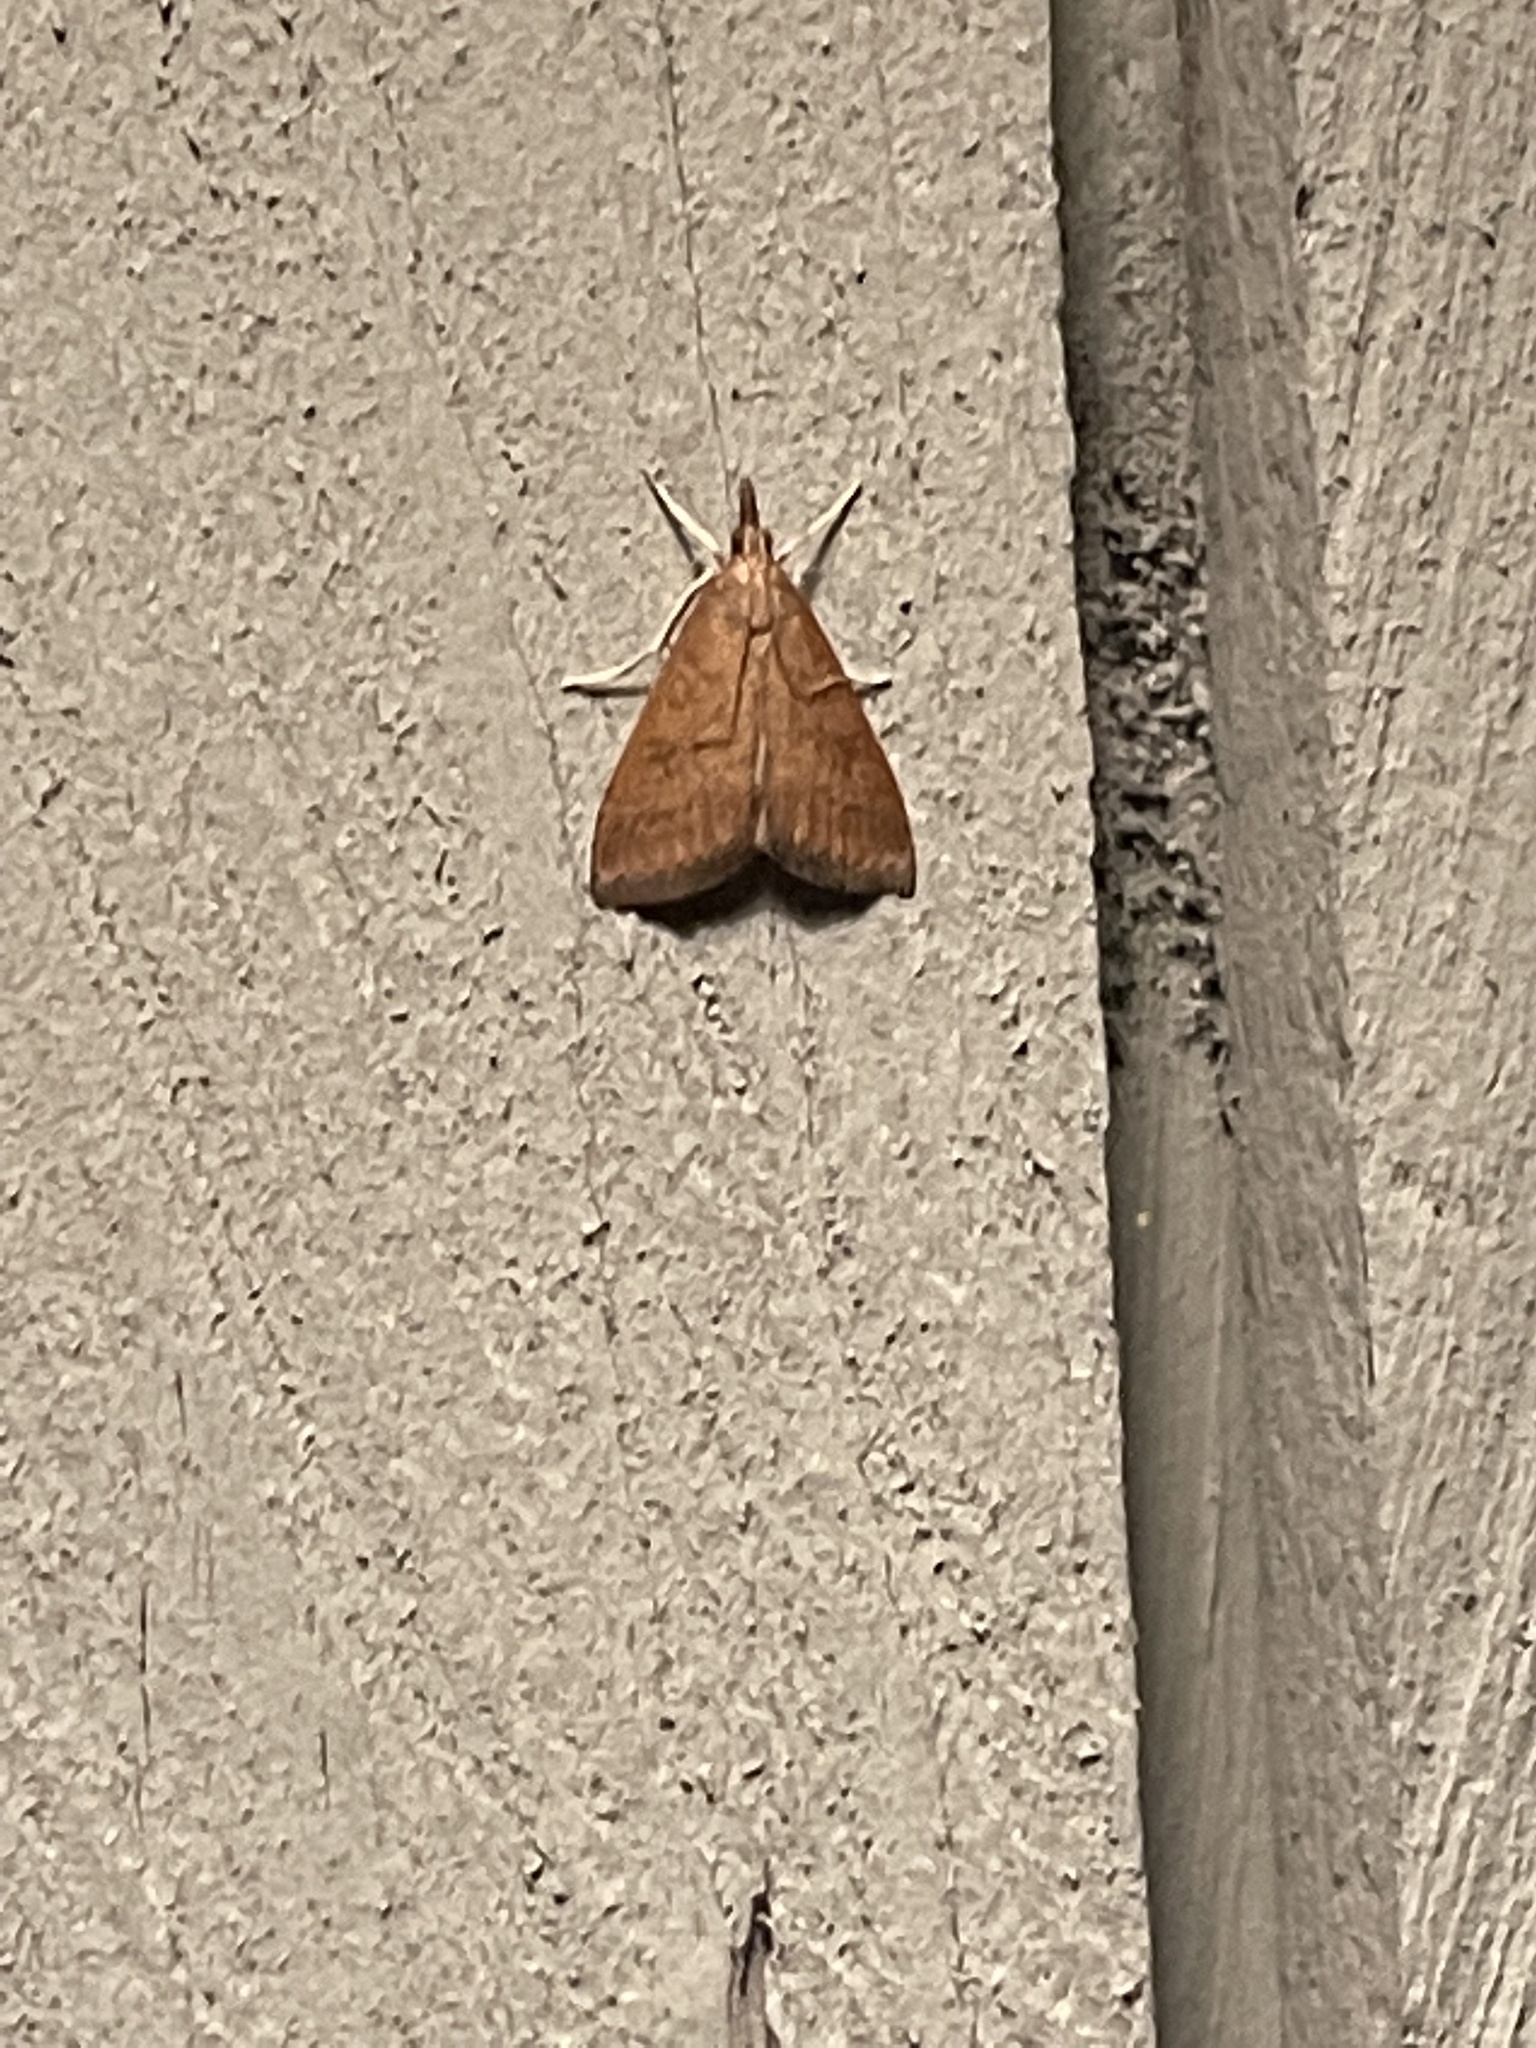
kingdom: Animalia
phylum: Arthropoda
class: Insecta
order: Lepidoptera
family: Crambidae
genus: Udea
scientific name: Udea rubigalis
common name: Celery leaftier moth
